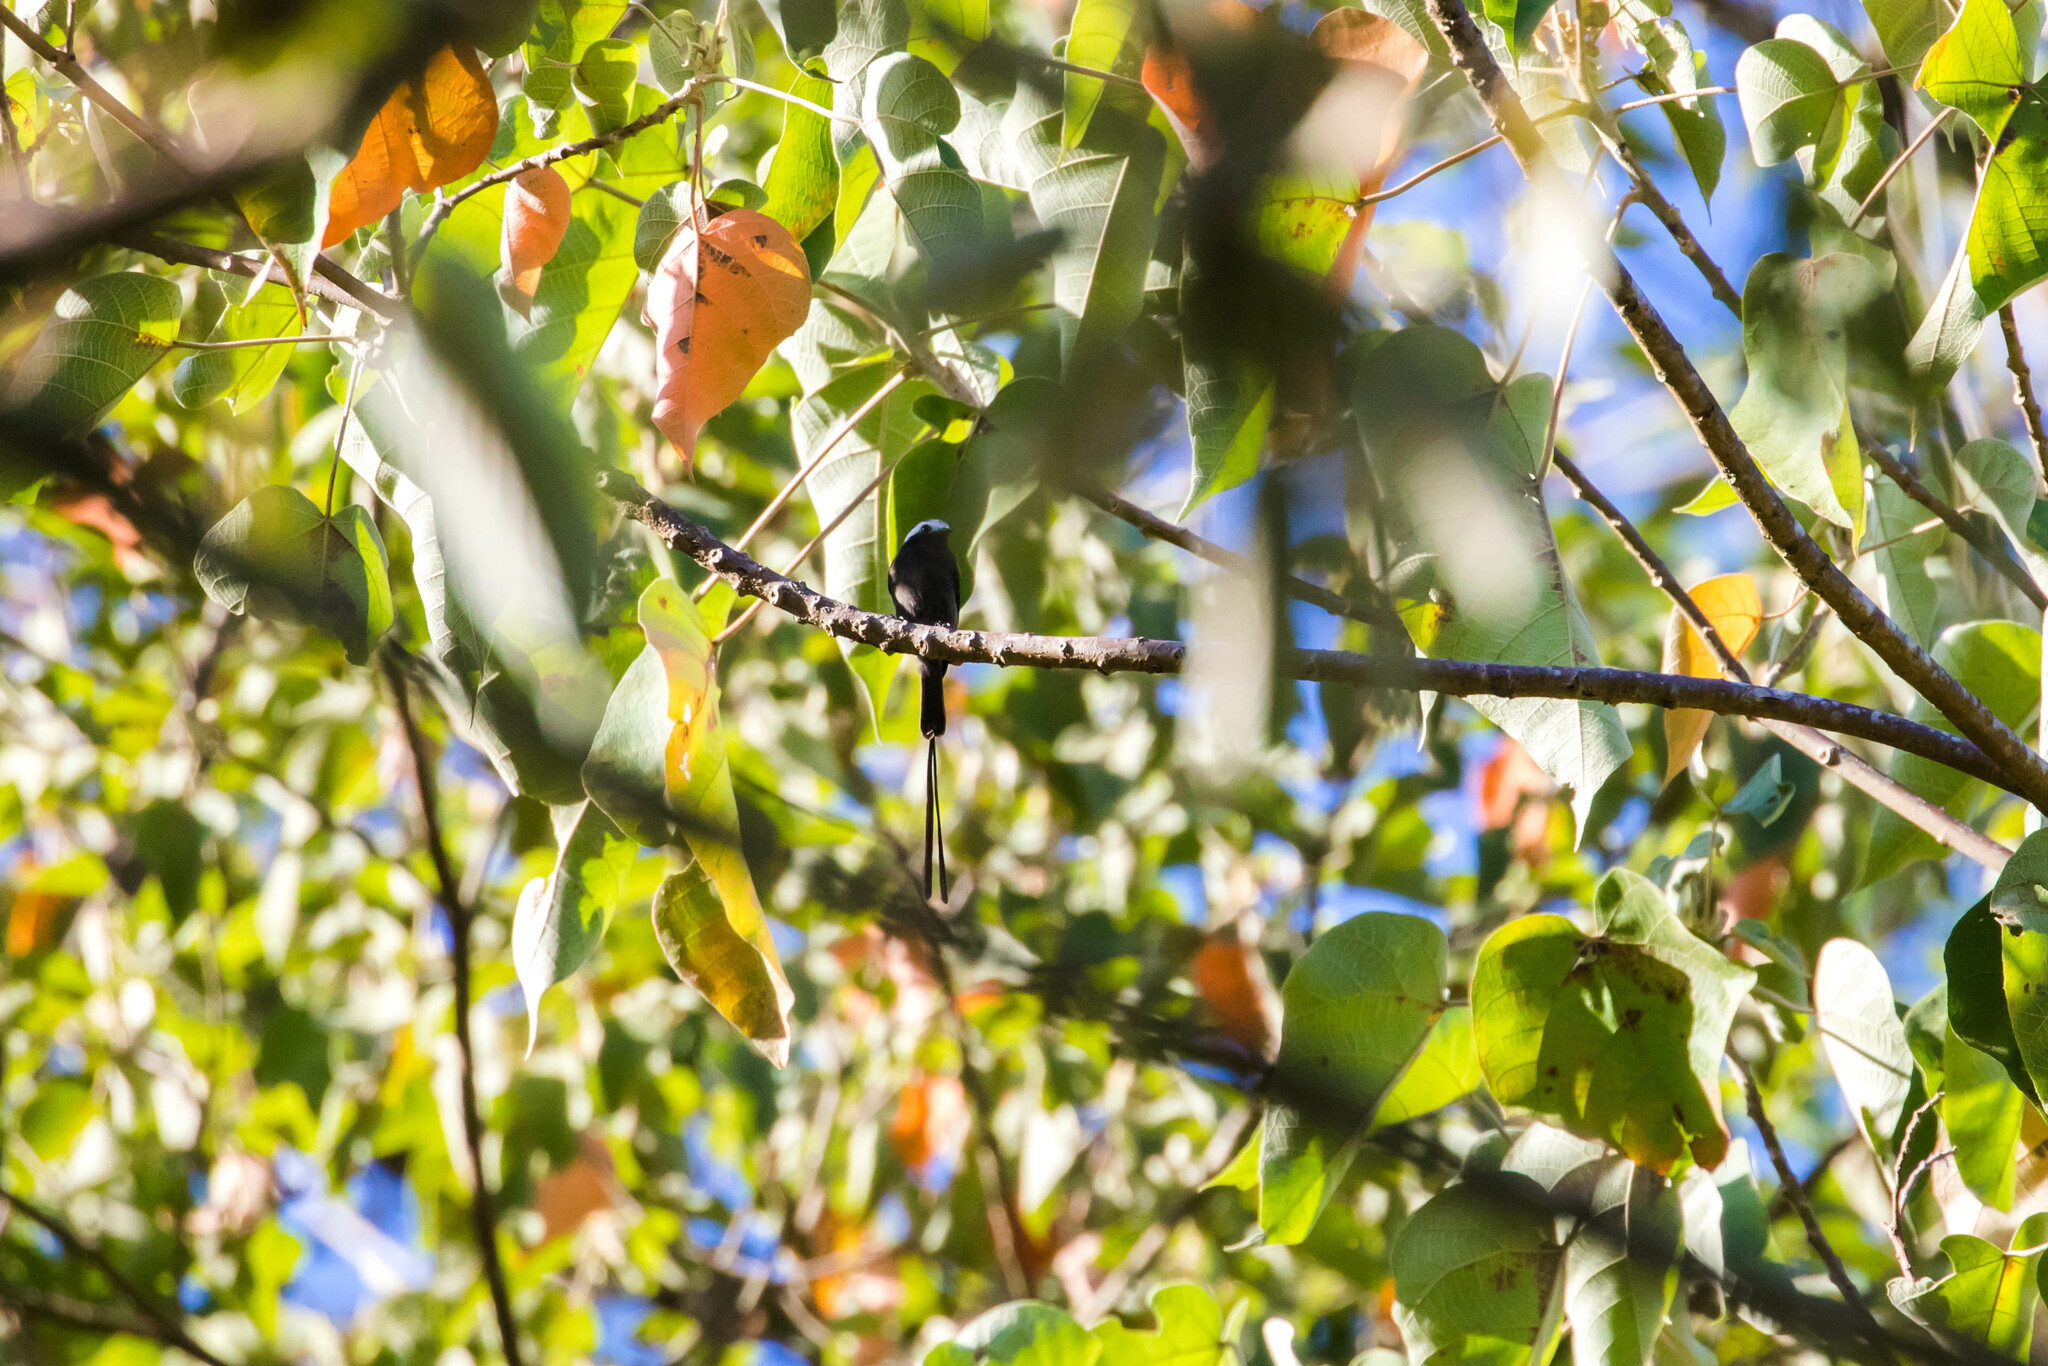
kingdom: Animalia
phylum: Chordata
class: Aves
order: Passeriformes
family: Tyrannidae
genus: Colonia
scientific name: Colonia colonus
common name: Long-tailed tyrant
